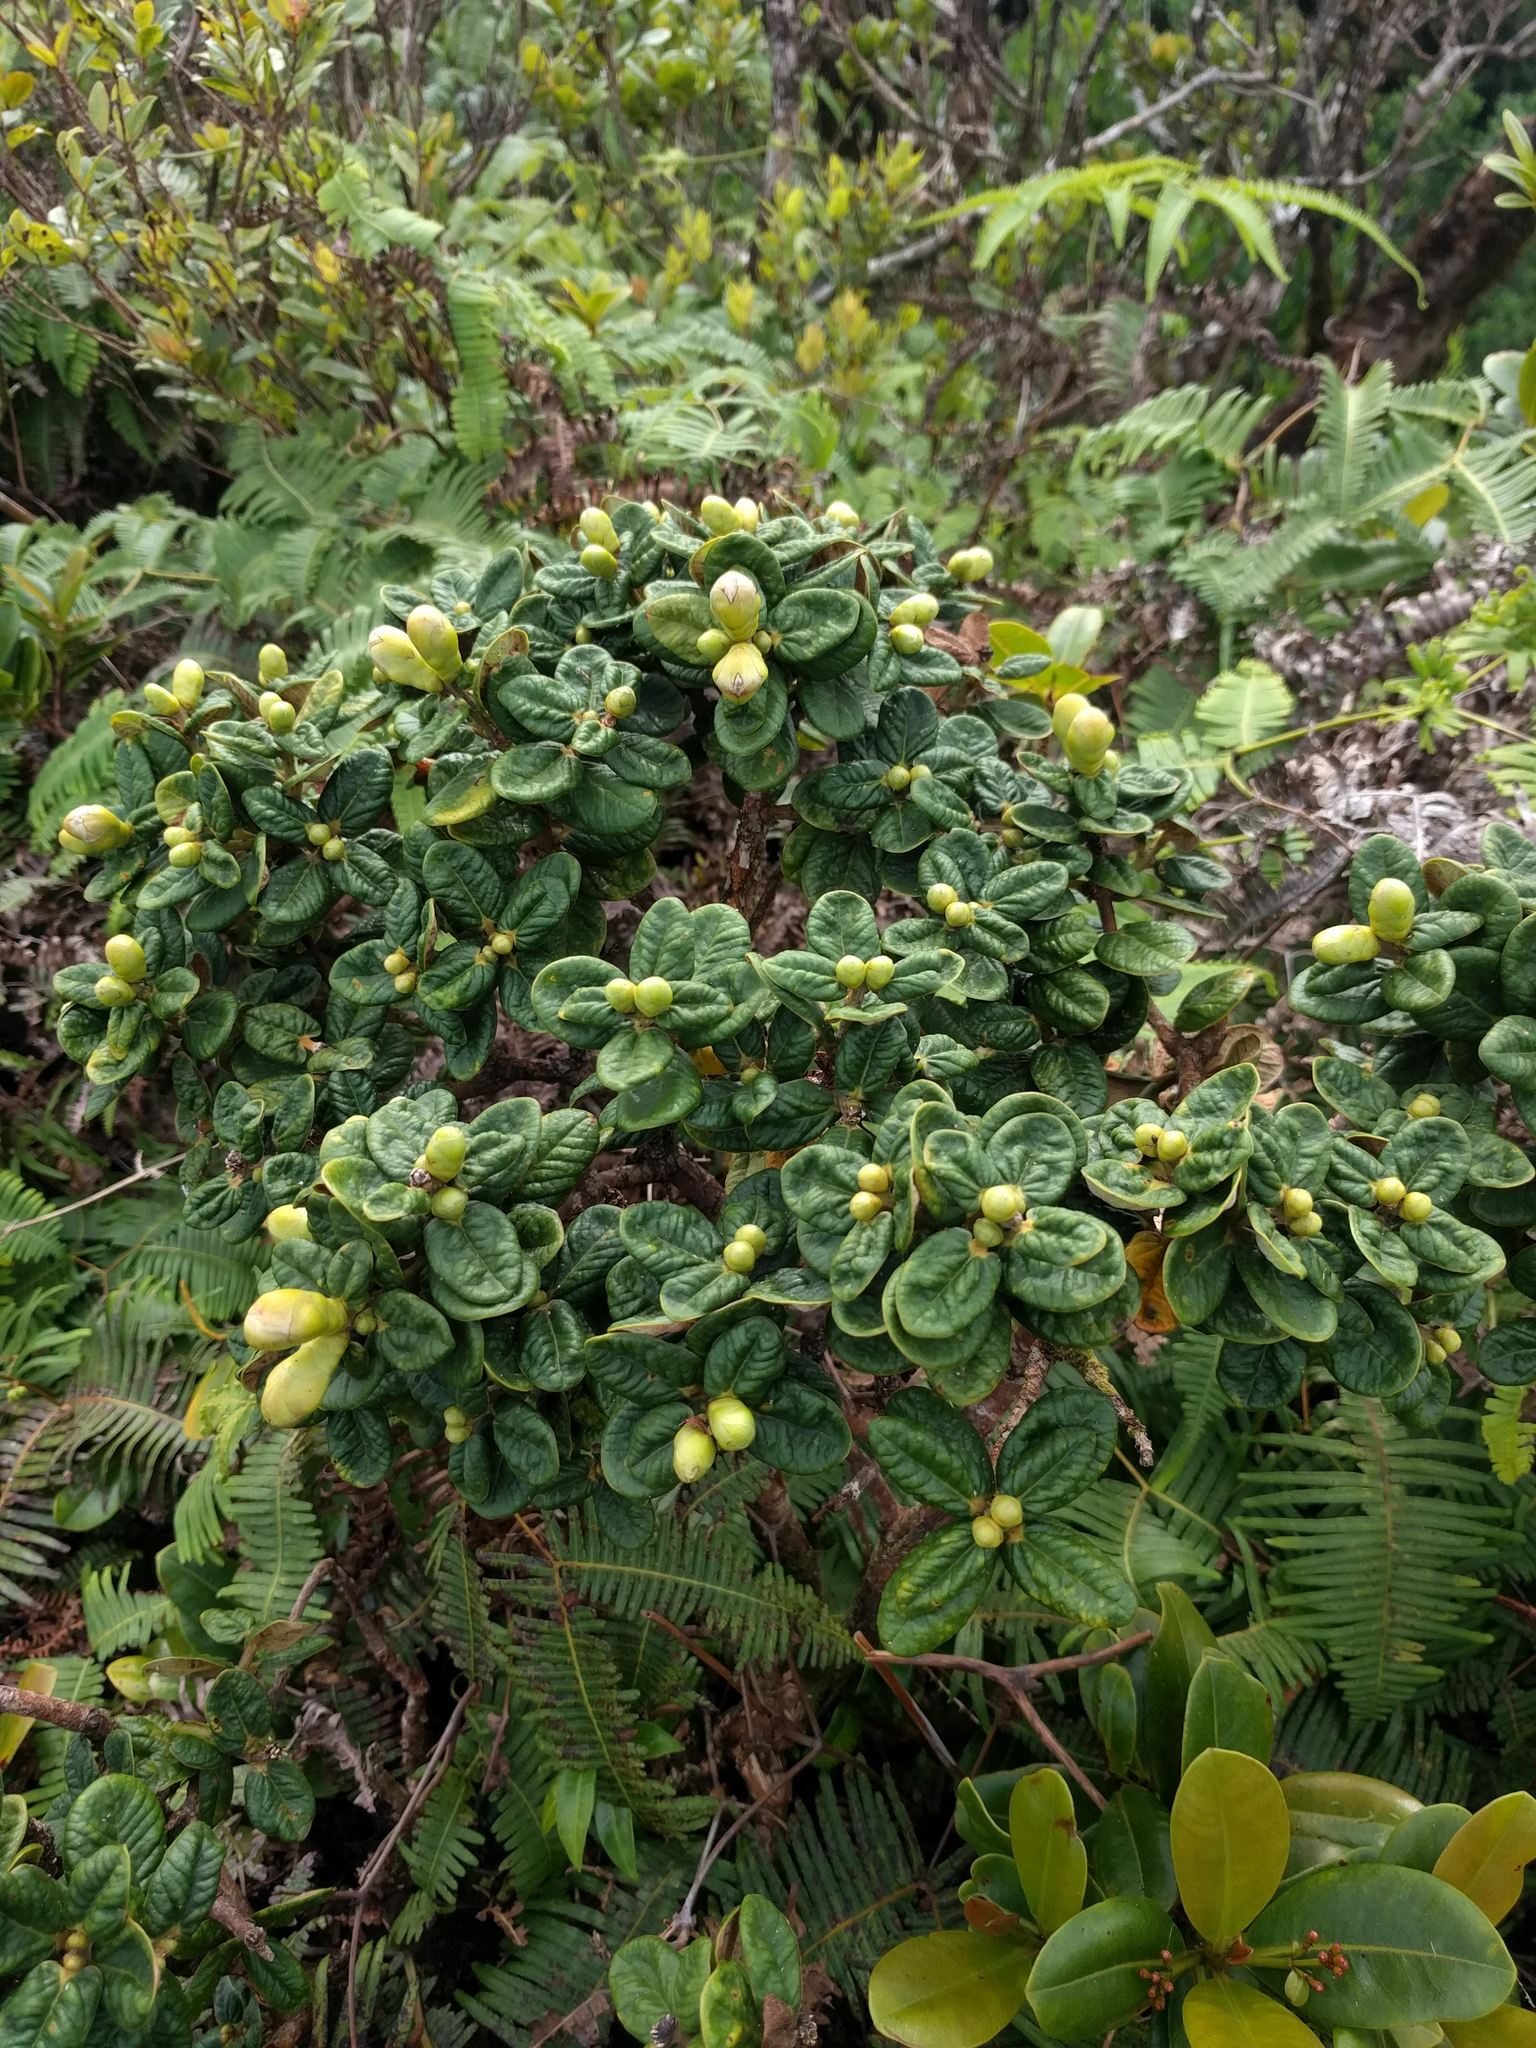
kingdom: Plantae
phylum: Tracheophyta
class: Magnoliopsida
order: Myrtales
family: Myrtaceae
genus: Metrosideros
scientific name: Metrosideros rugosa
